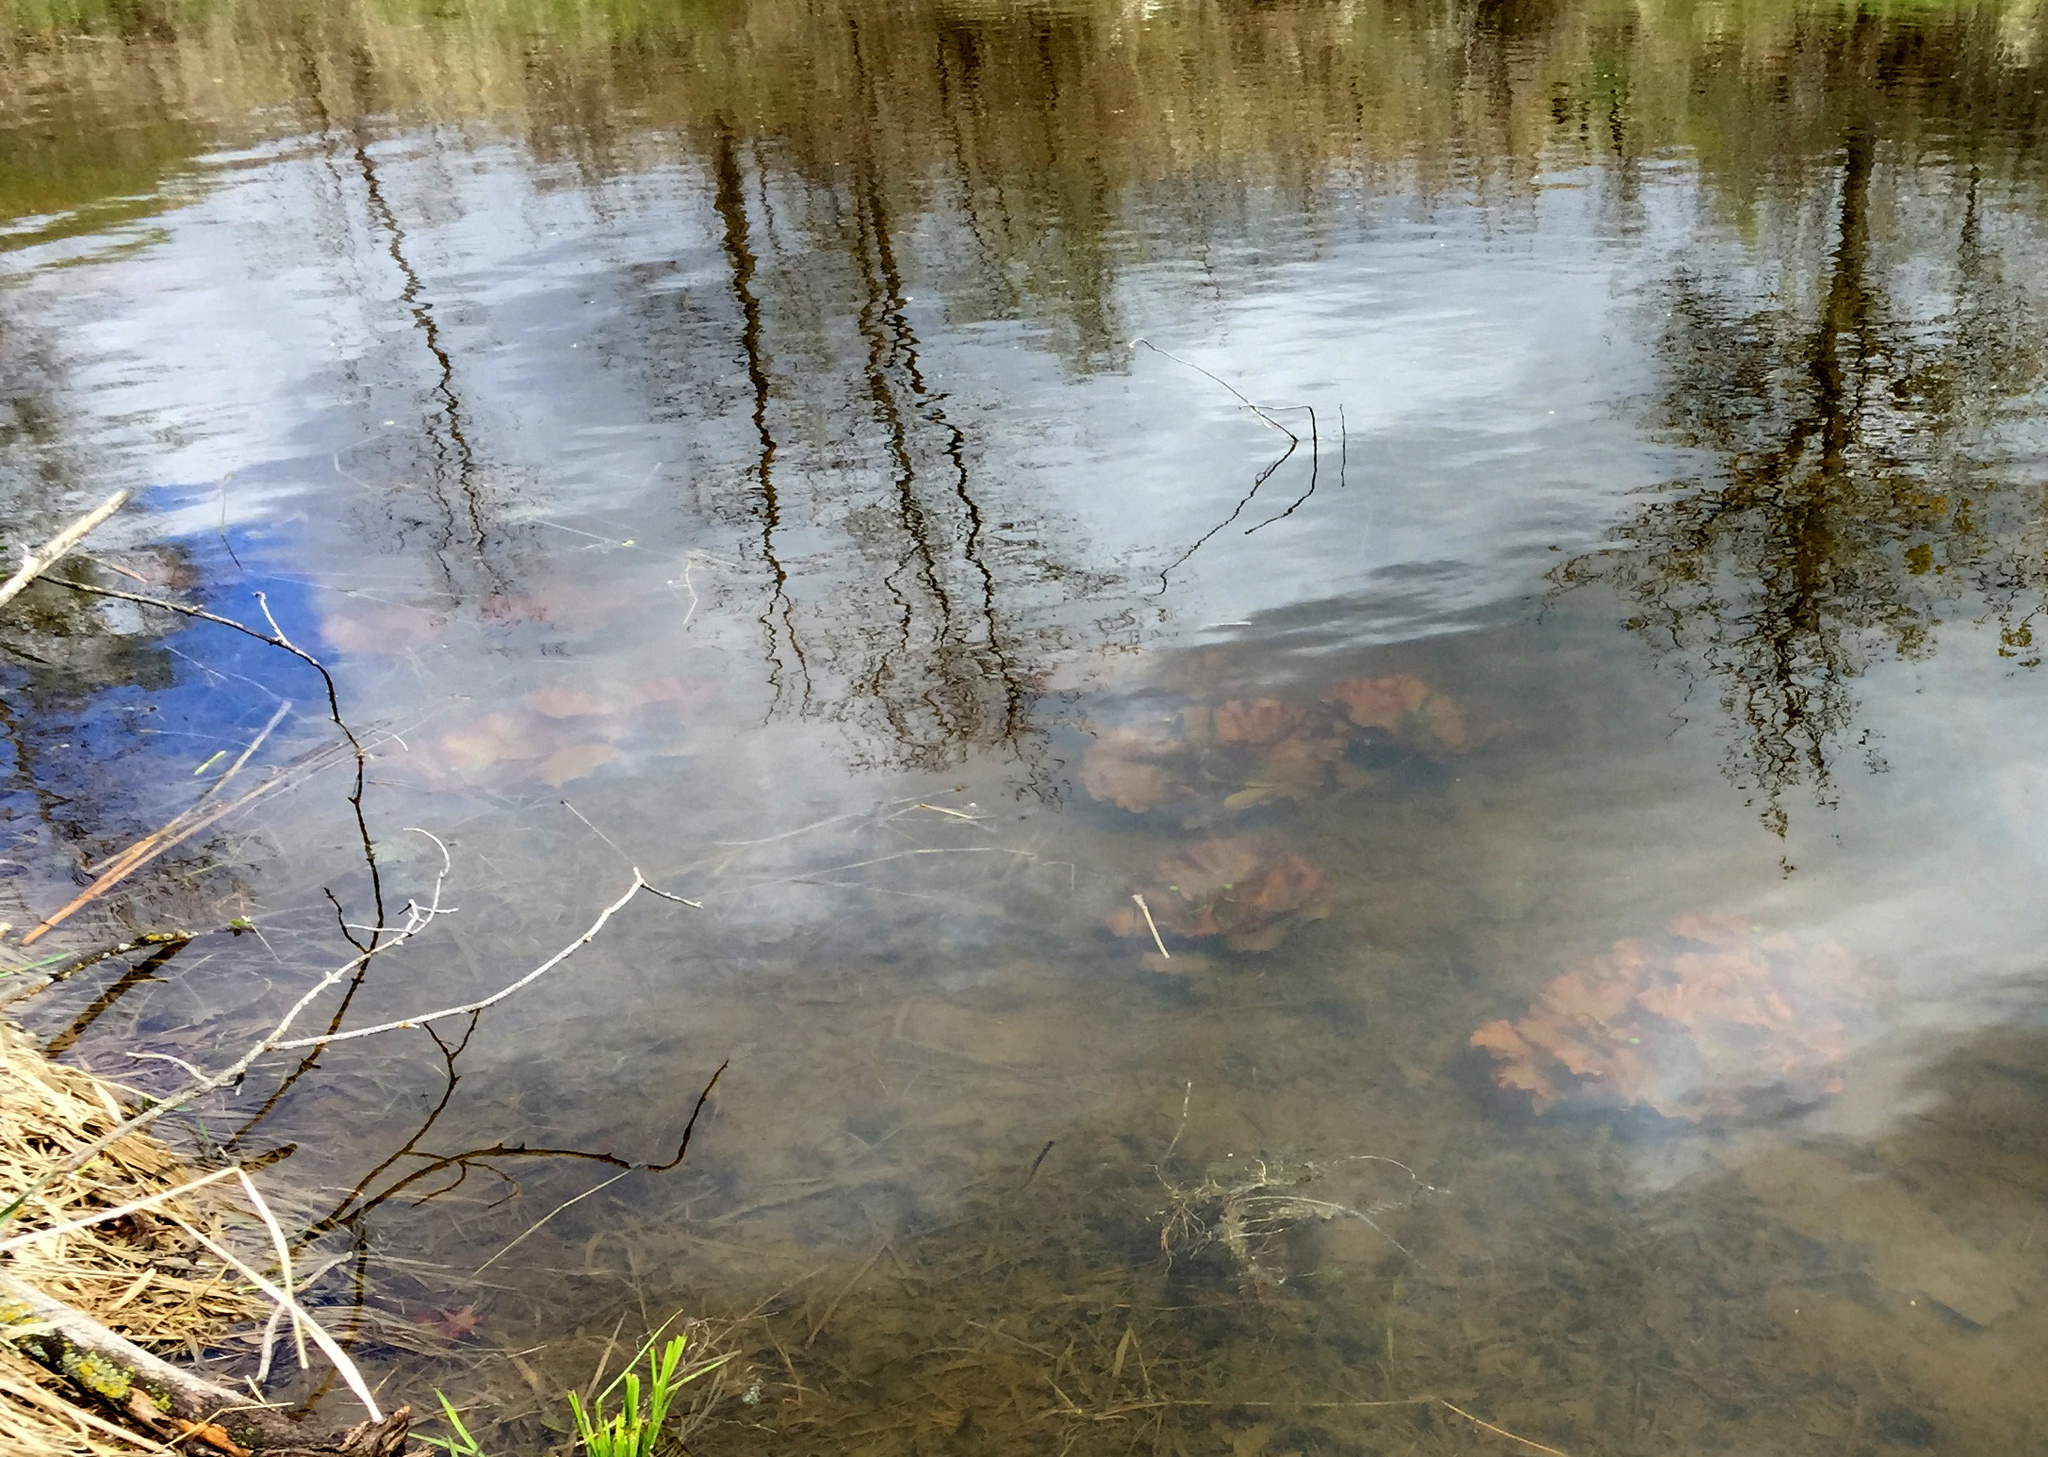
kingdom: Plantae
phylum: Tracheophyta
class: Magnoliopsida
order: Nymphaeales
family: Nymphaeaceae
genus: Nuphar
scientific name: Nuphar variegata
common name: Beaver-root
